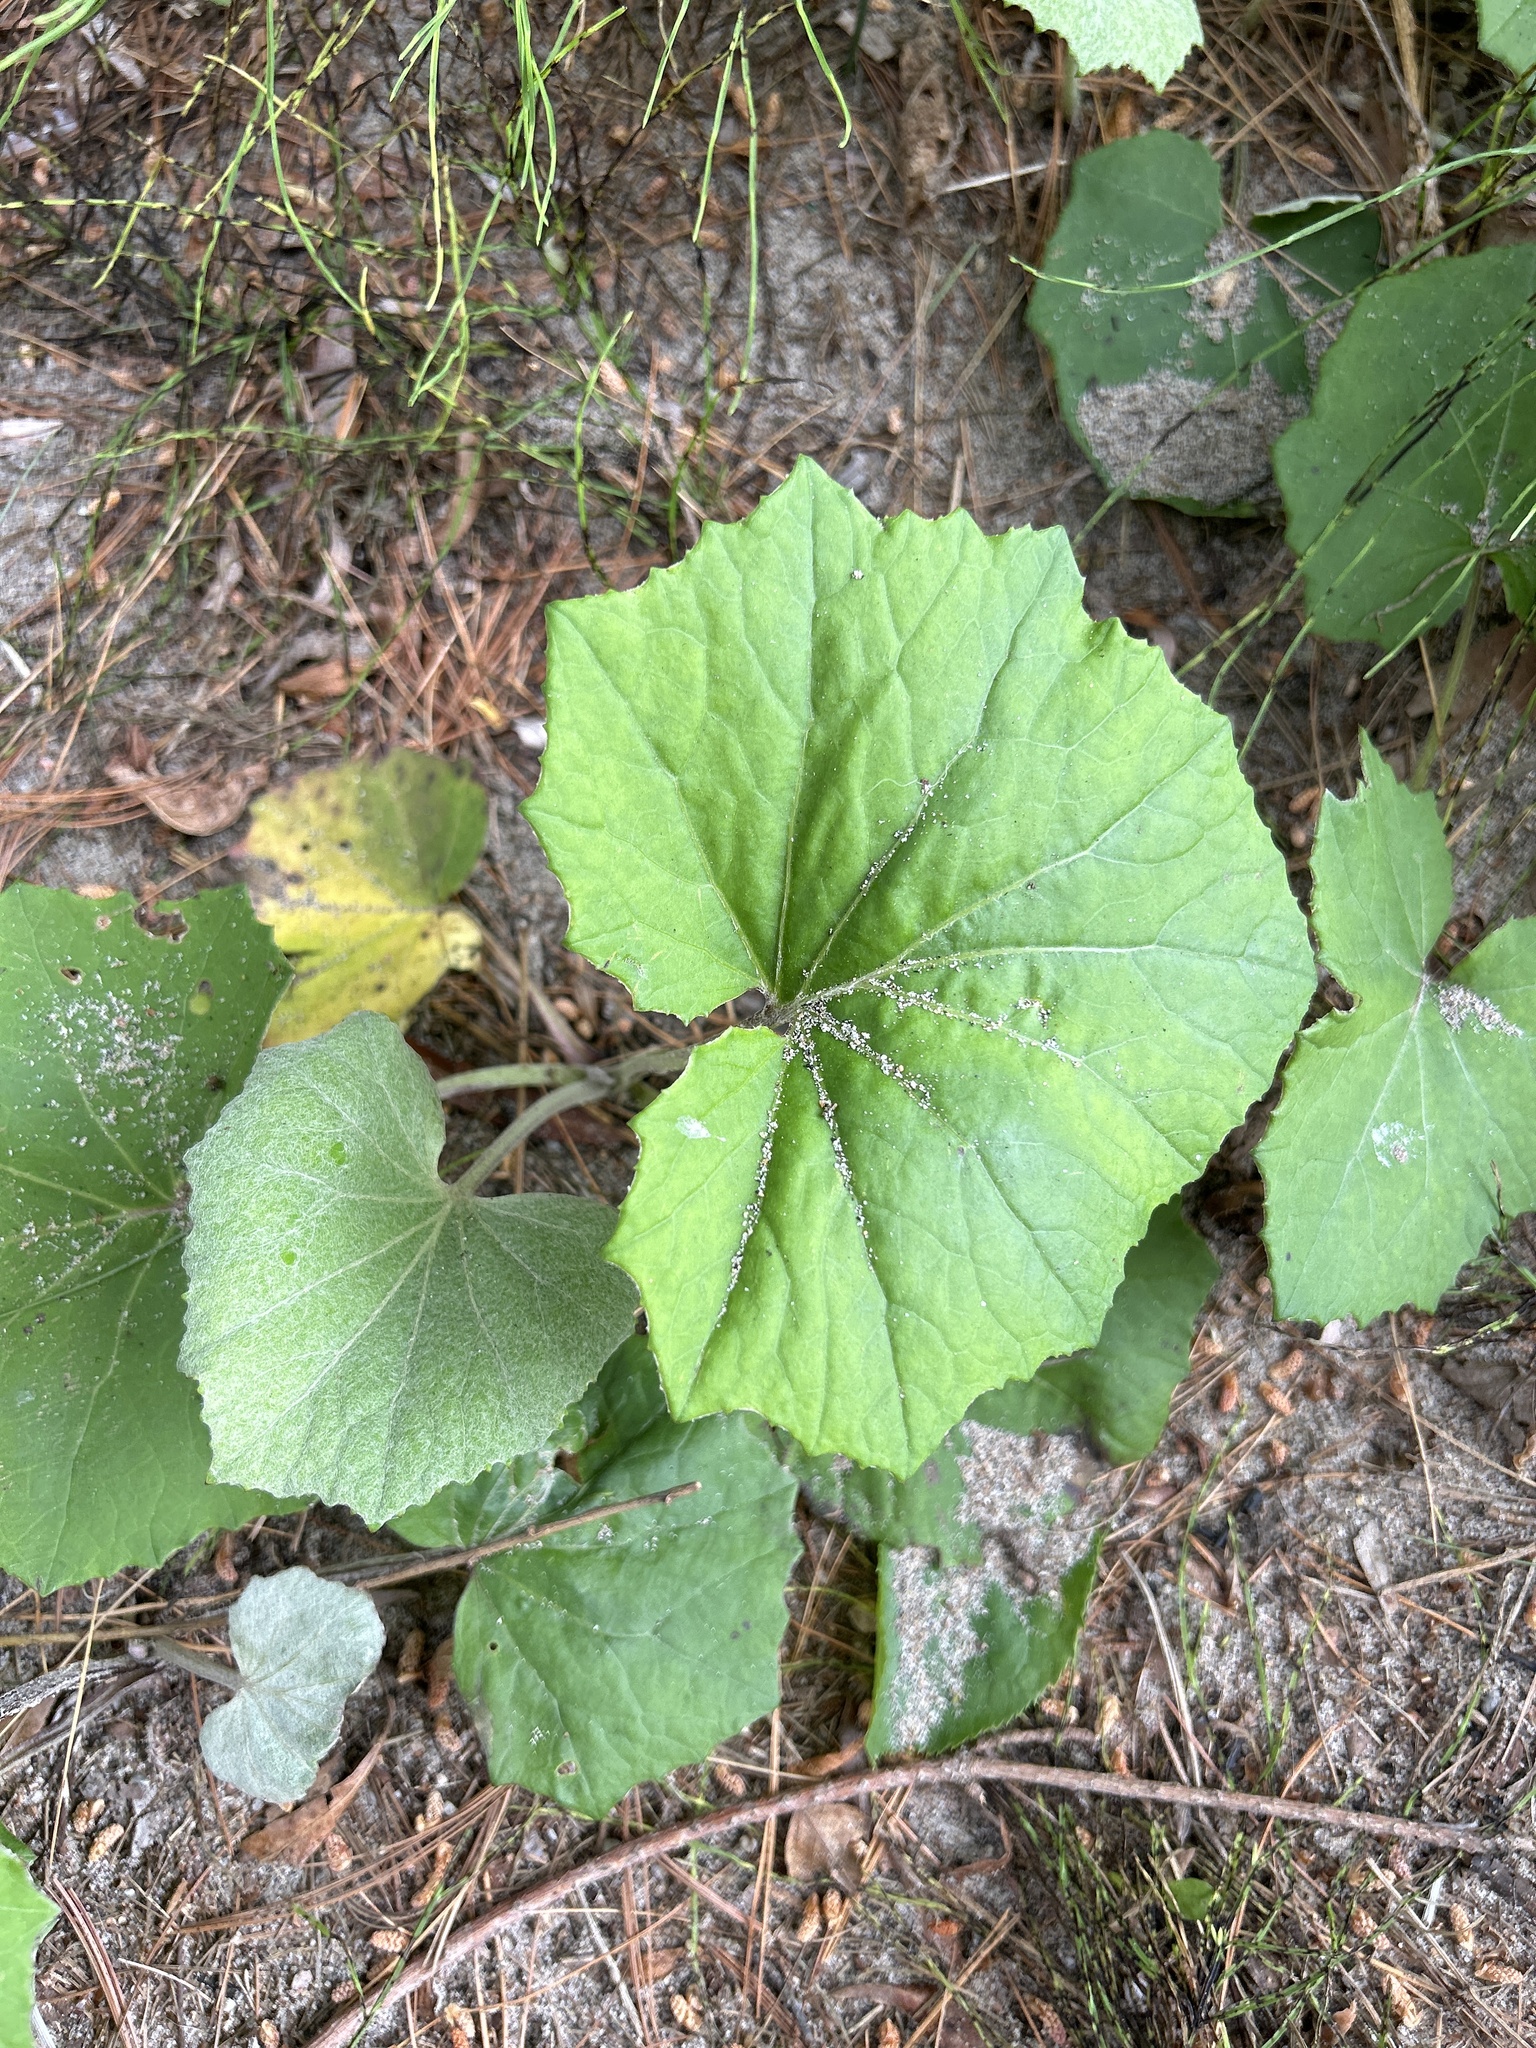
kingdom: Plantae
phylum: Tracheophyta
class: Magnoliopsida
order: Asterales
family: Asteraceae
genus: Tussilago
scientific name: Tussilago farfara
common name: Coltsfoot
